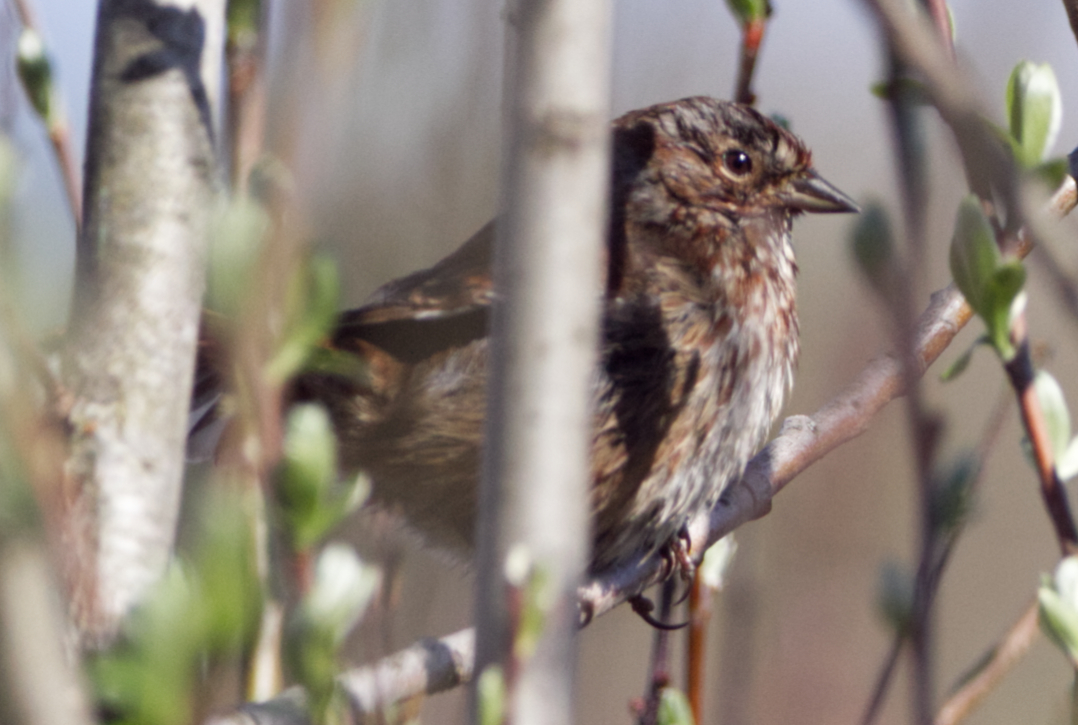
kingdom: Animalia
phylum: Chordata
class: Aves
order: Passeriformes
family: Passerellidae
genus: Melospiza
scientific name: Melospiza melodia
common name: Song sparrow
